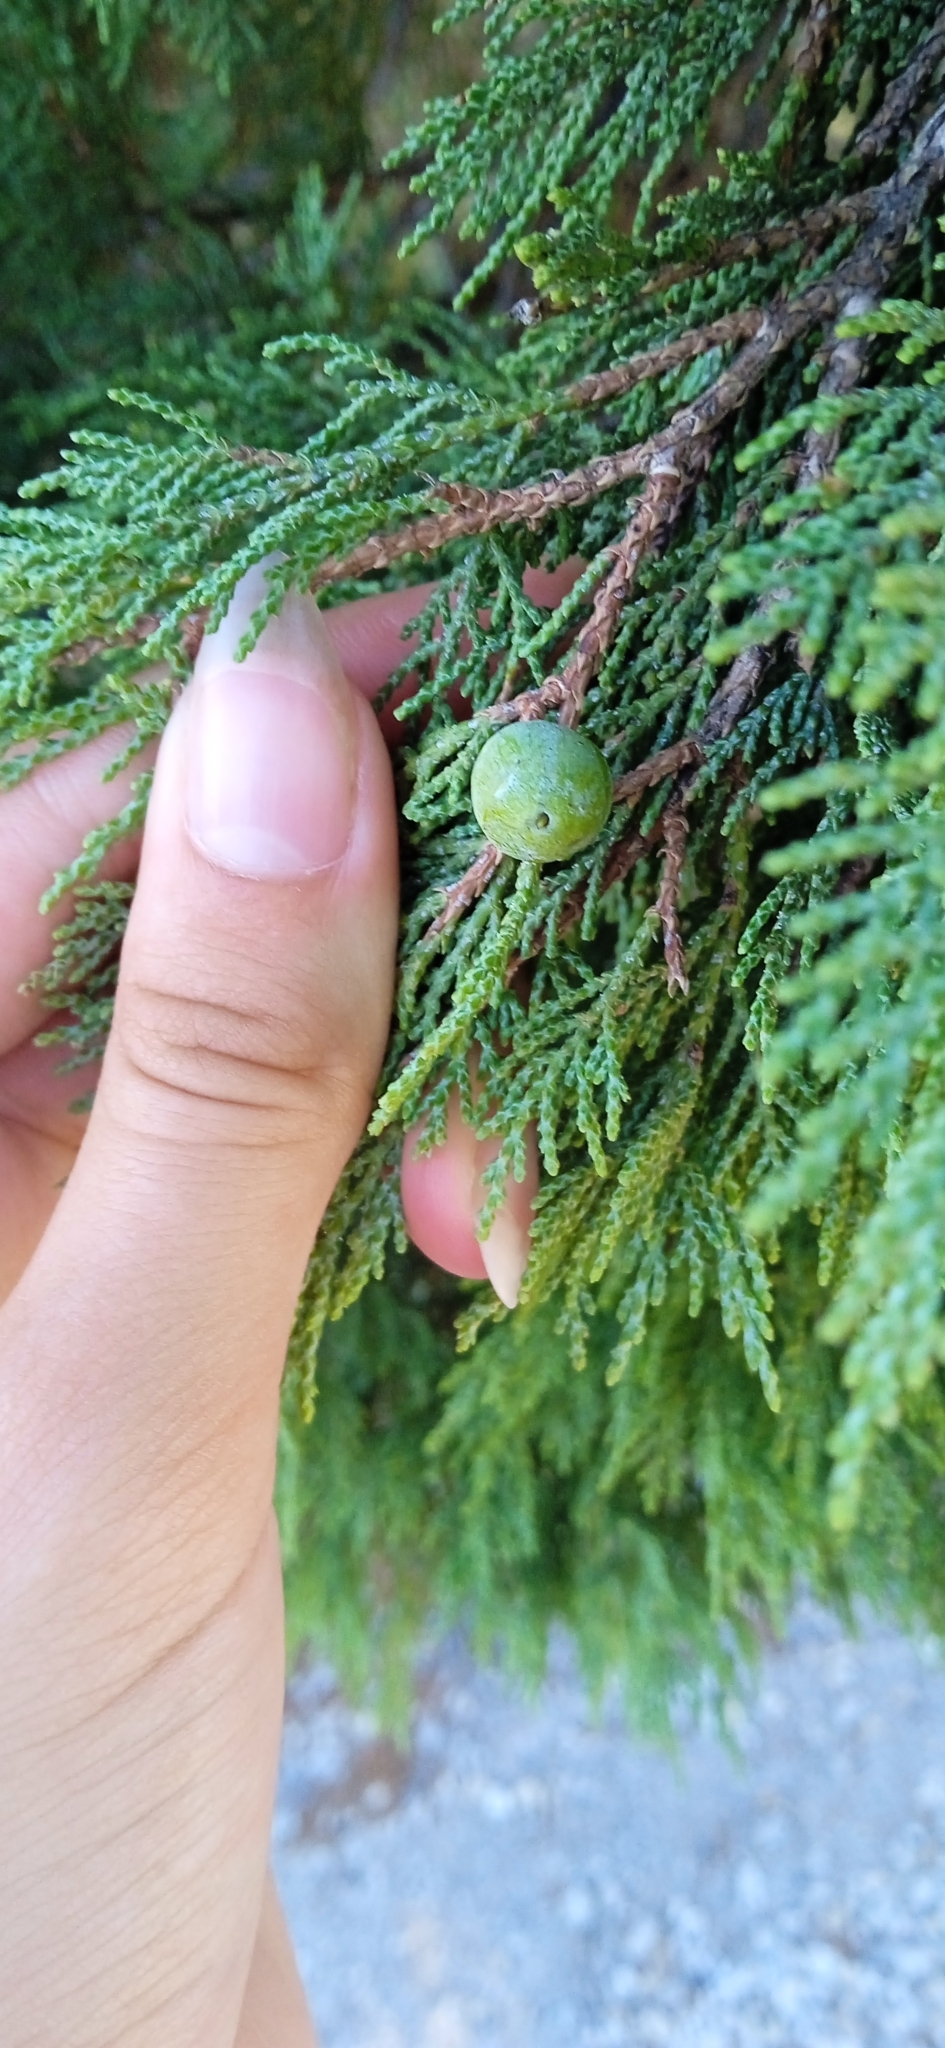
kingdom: Plantae
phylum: Tracheophyta
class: Pinopsida
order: Pinales
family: Cupressaceae
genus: Juniperus
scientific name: Juniperus excelsa
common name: Crimean juniper
